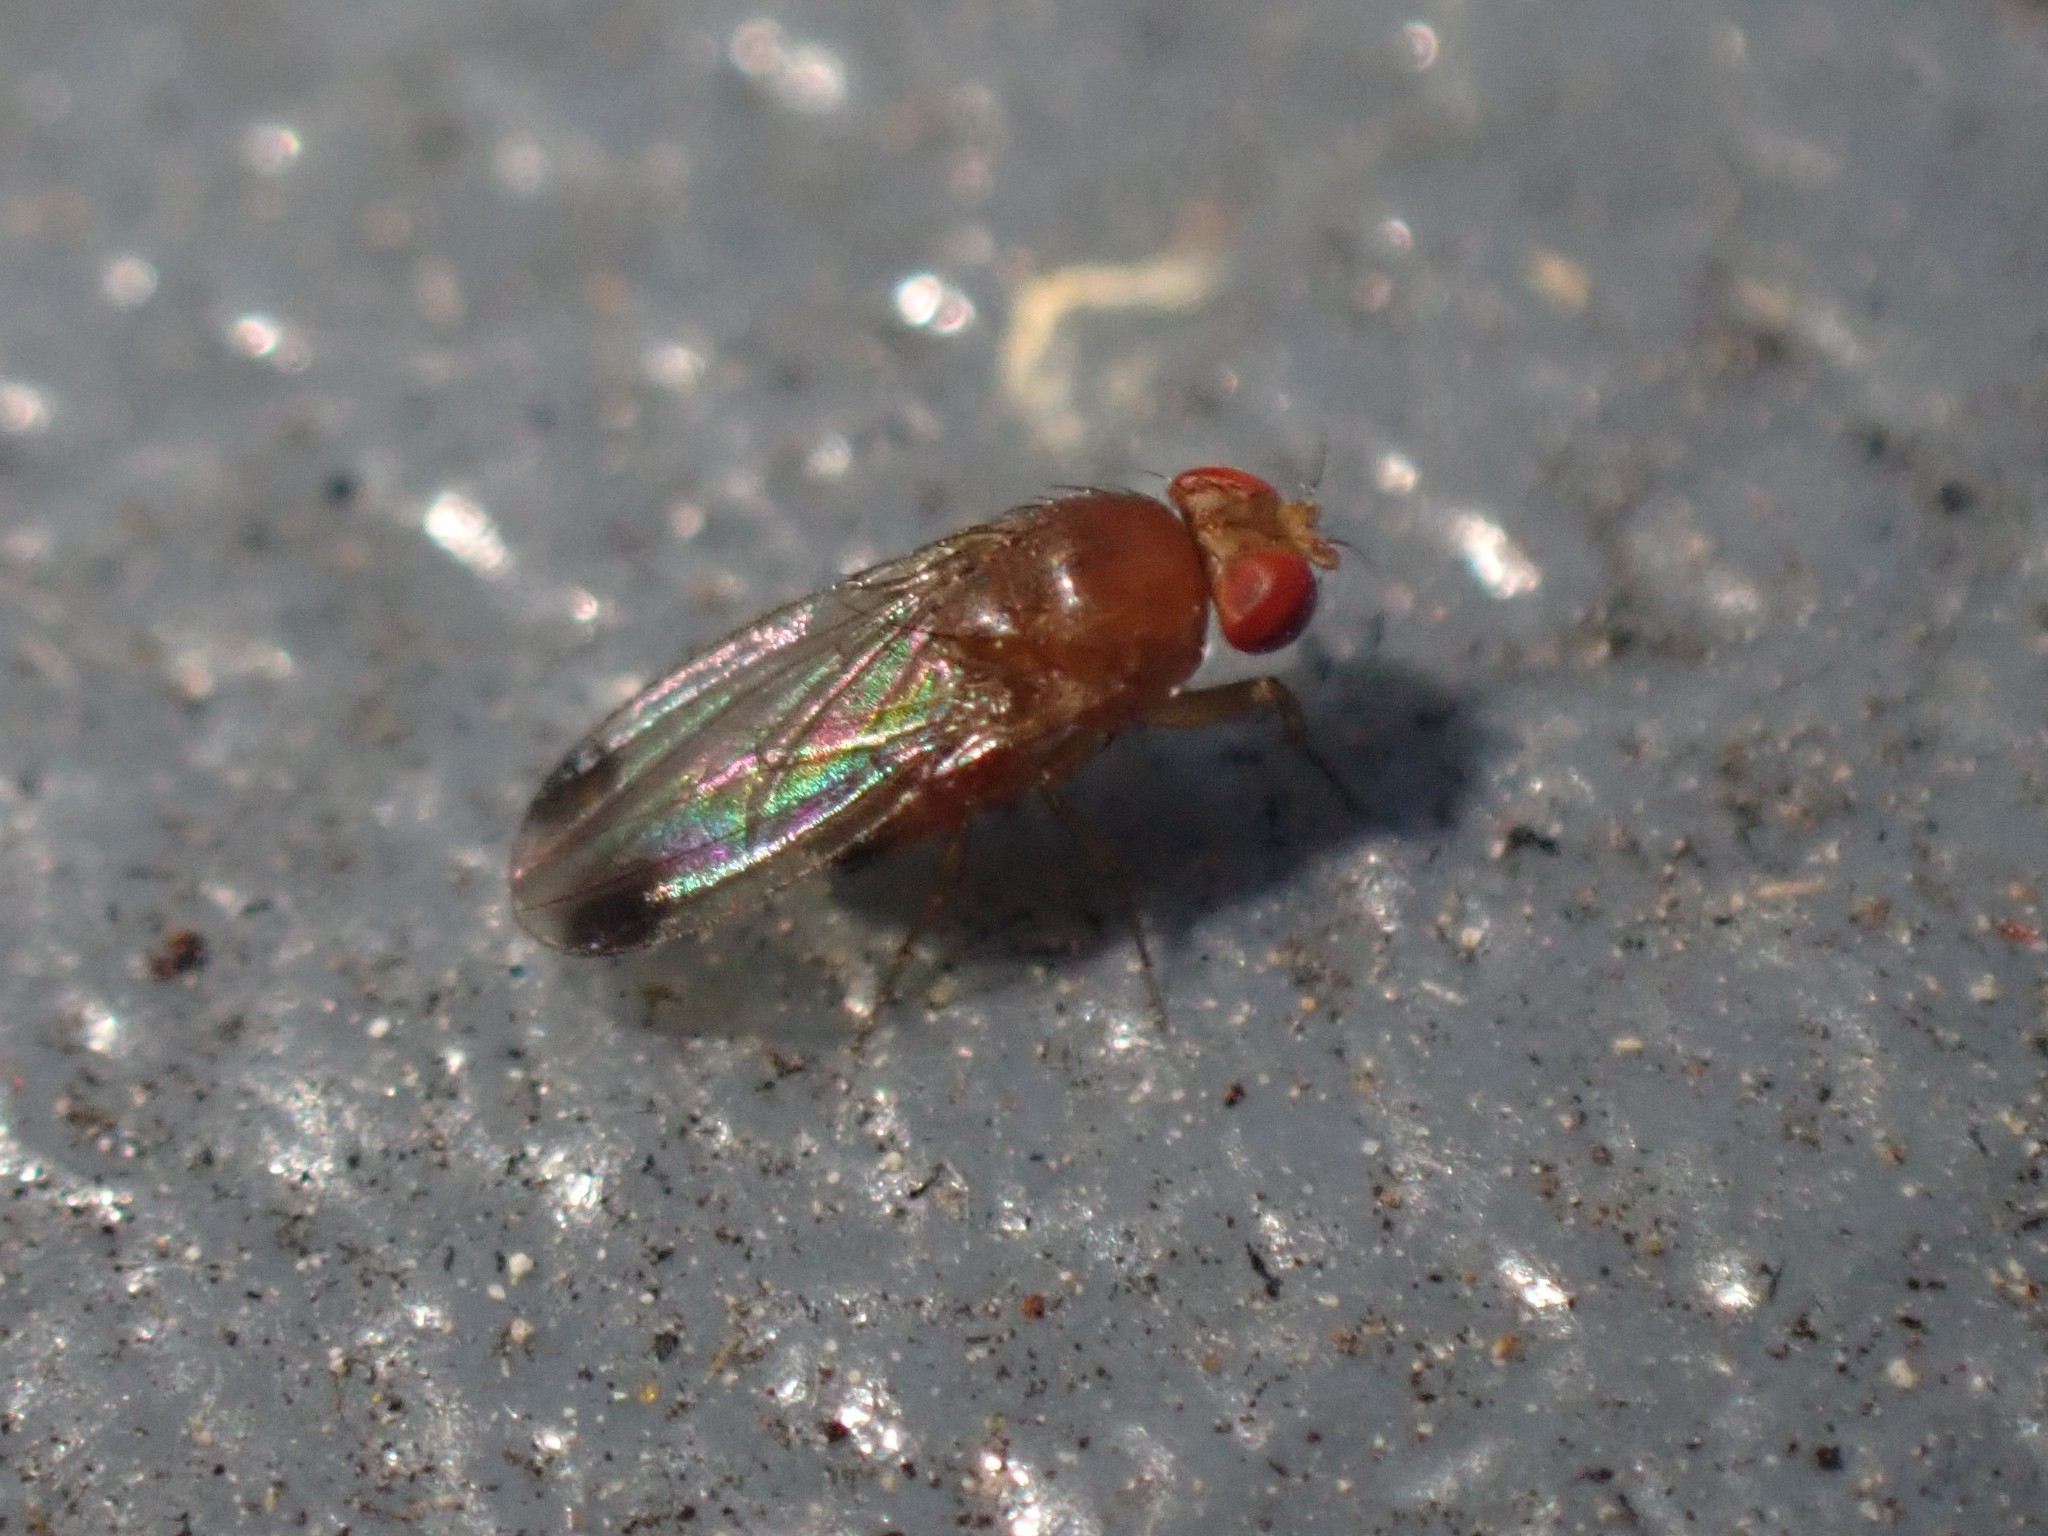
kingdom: Animalia
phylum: Arthropoda
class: Insecta
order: Diptera
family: Drosophilidae
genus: Drosophila
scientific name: Drosophila suzukii
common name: Spotted-wing drosophila
